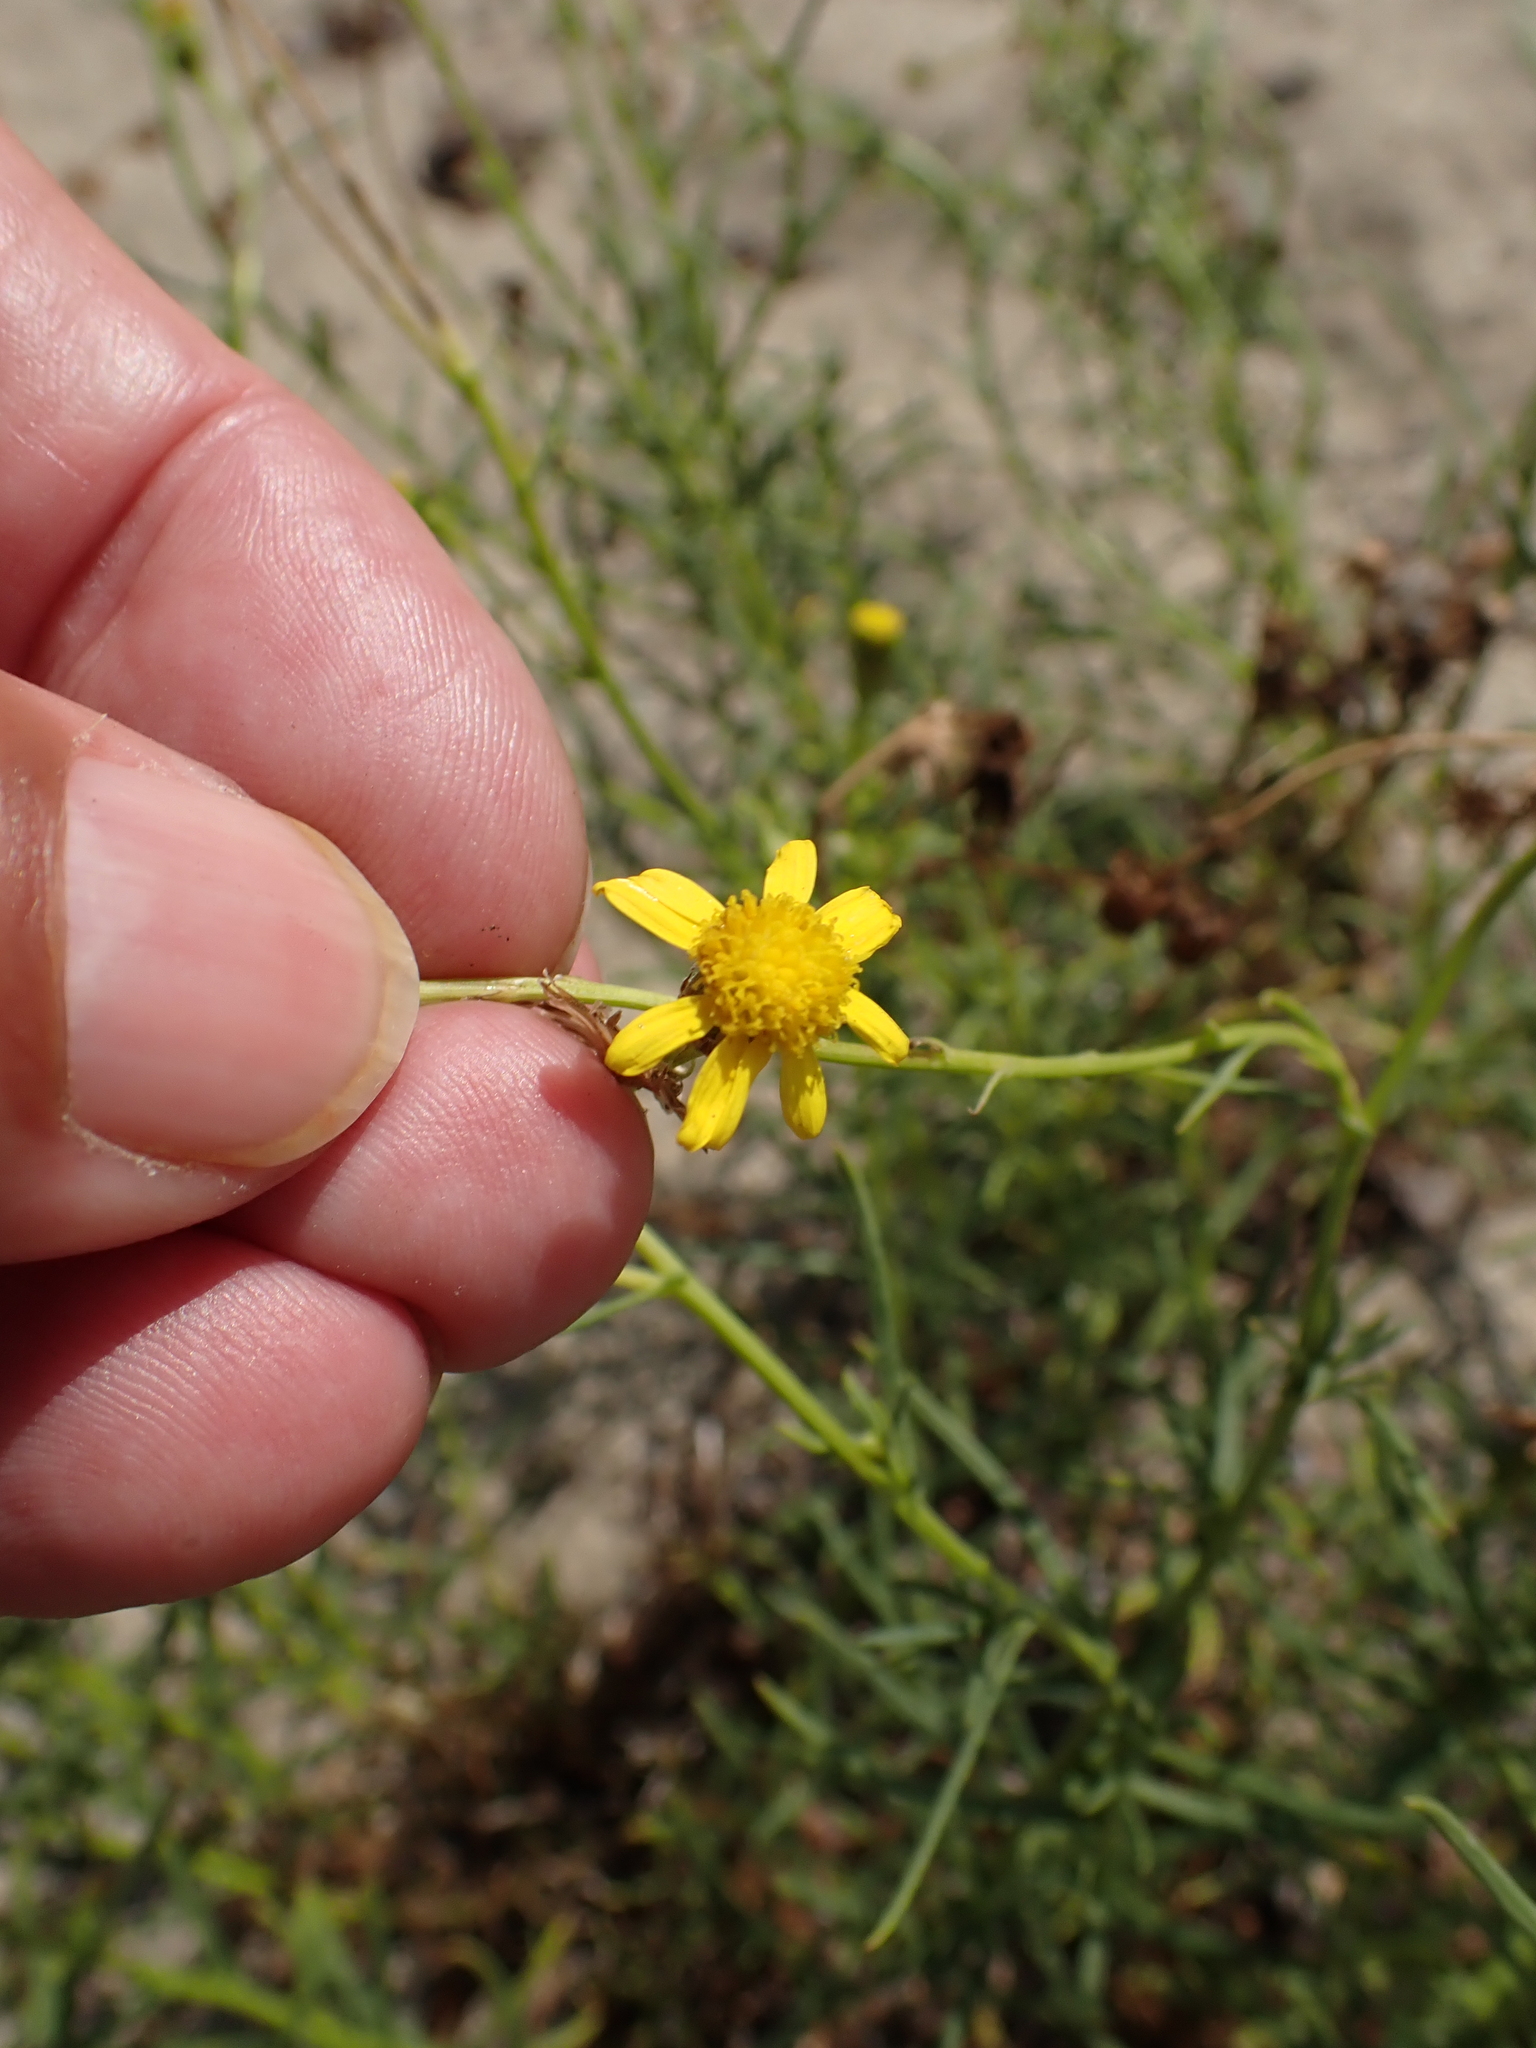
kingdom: Plantae
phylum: Tracheophyta
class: Magnoliopsida
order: Asterales
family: Asteraceae
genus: Senecio
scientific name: Senecio inaequidens
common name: Narrow-leaved ragwort
